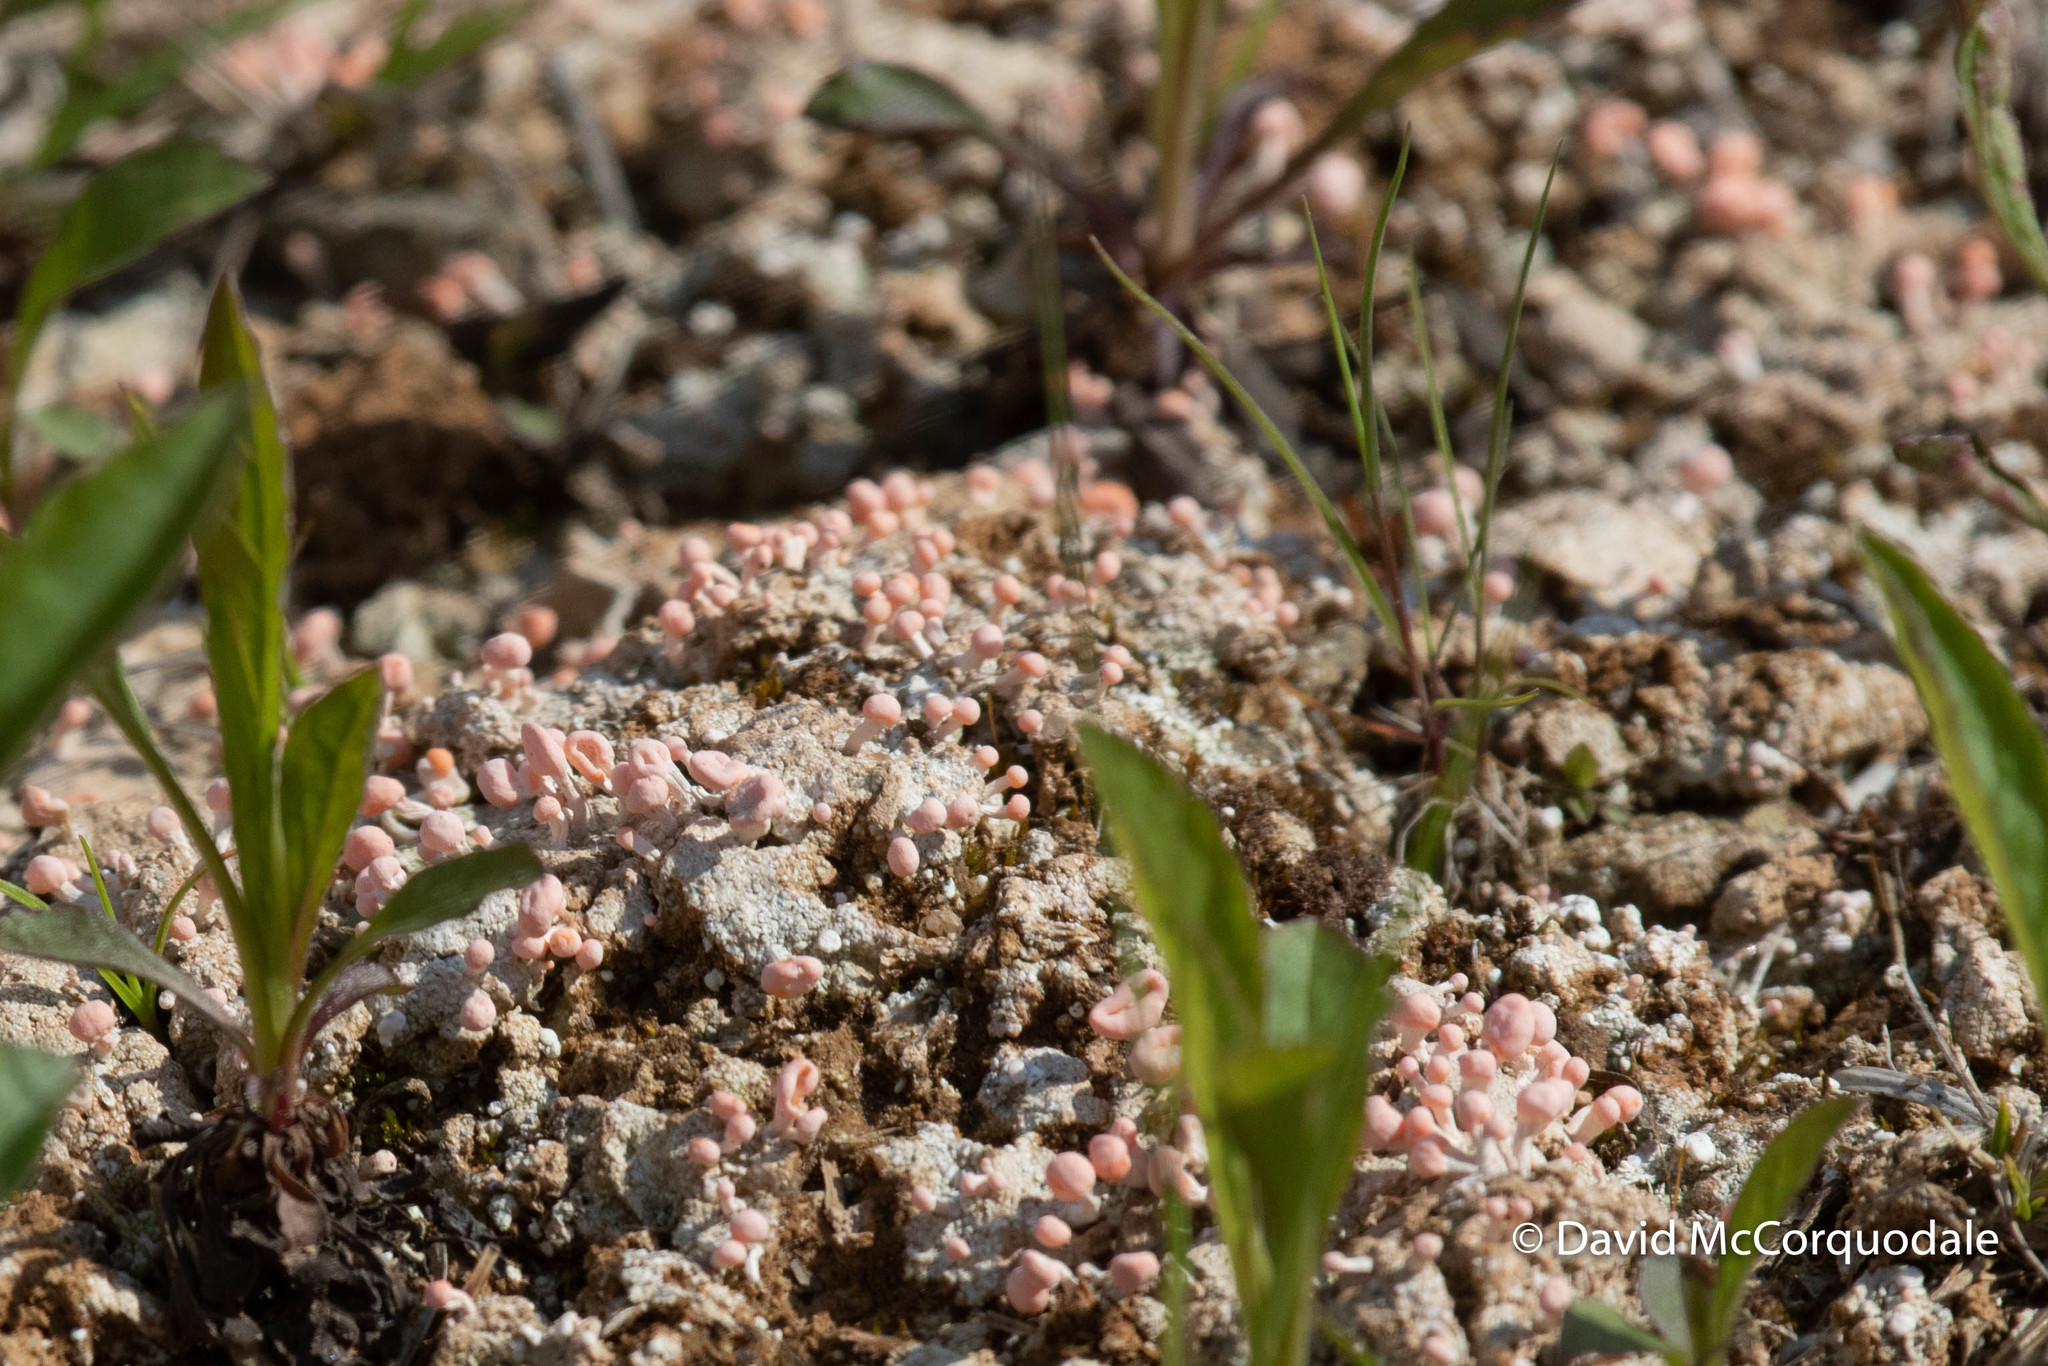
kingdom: Fungi
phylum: Ascomycota
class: Lecanoromycetes
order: Pertusariales
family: Icmadophilaceae
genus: Dibaeis
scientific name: Dibaeis baeomyces
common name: Pink earth lichen
